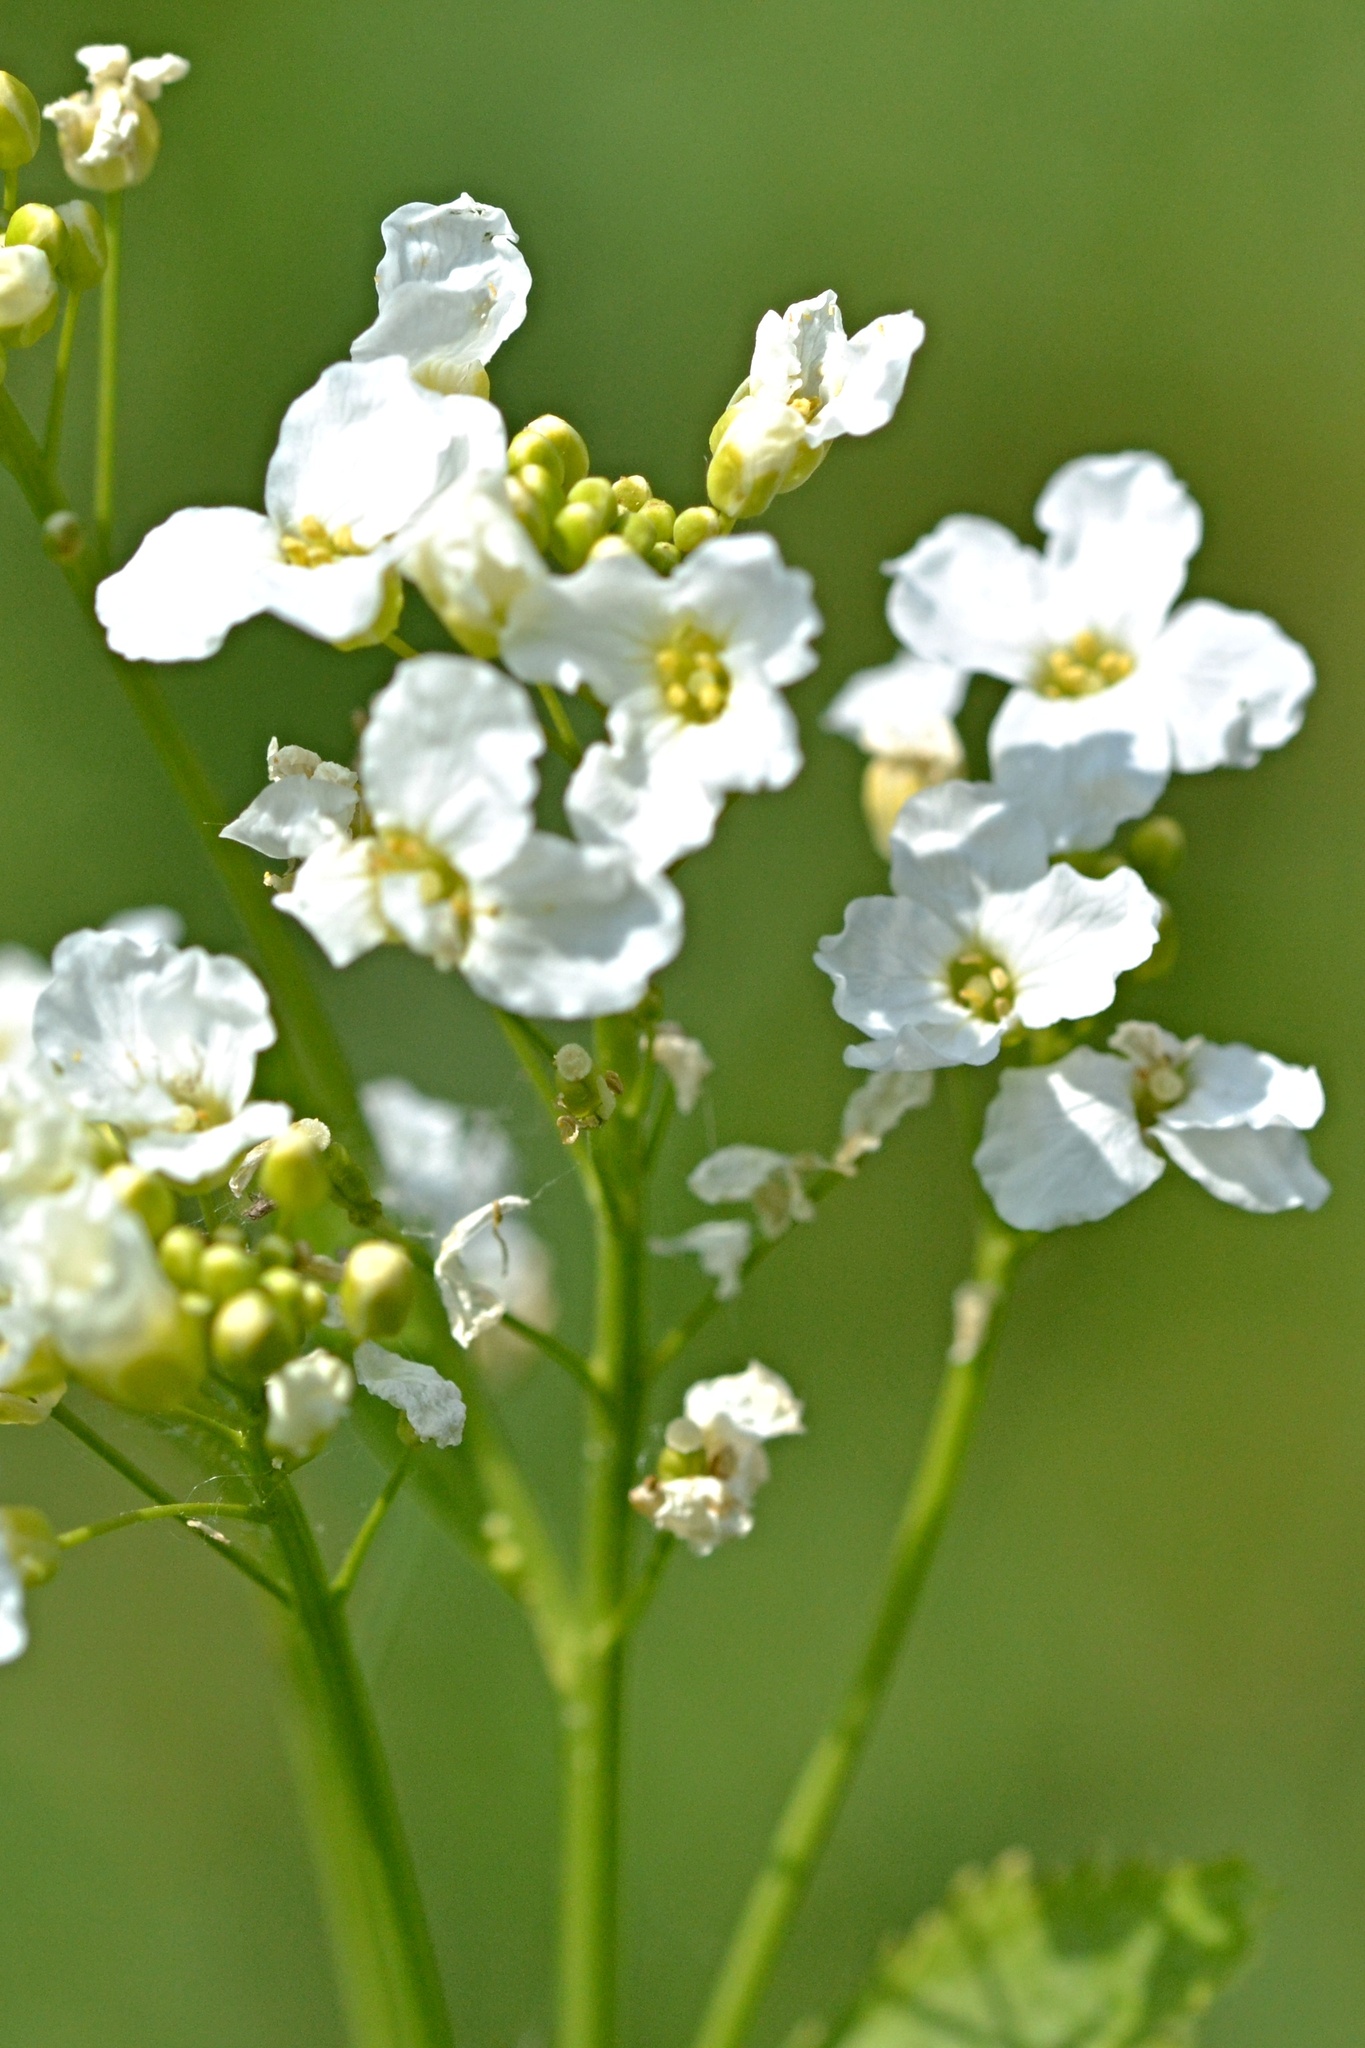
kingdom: Plantae
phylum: Tracheophyta
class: Magnoliopsida
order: Brassicales
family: Brassicaceae
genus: Armoracia
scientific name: Armoracia rusticana
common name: Horseradish
